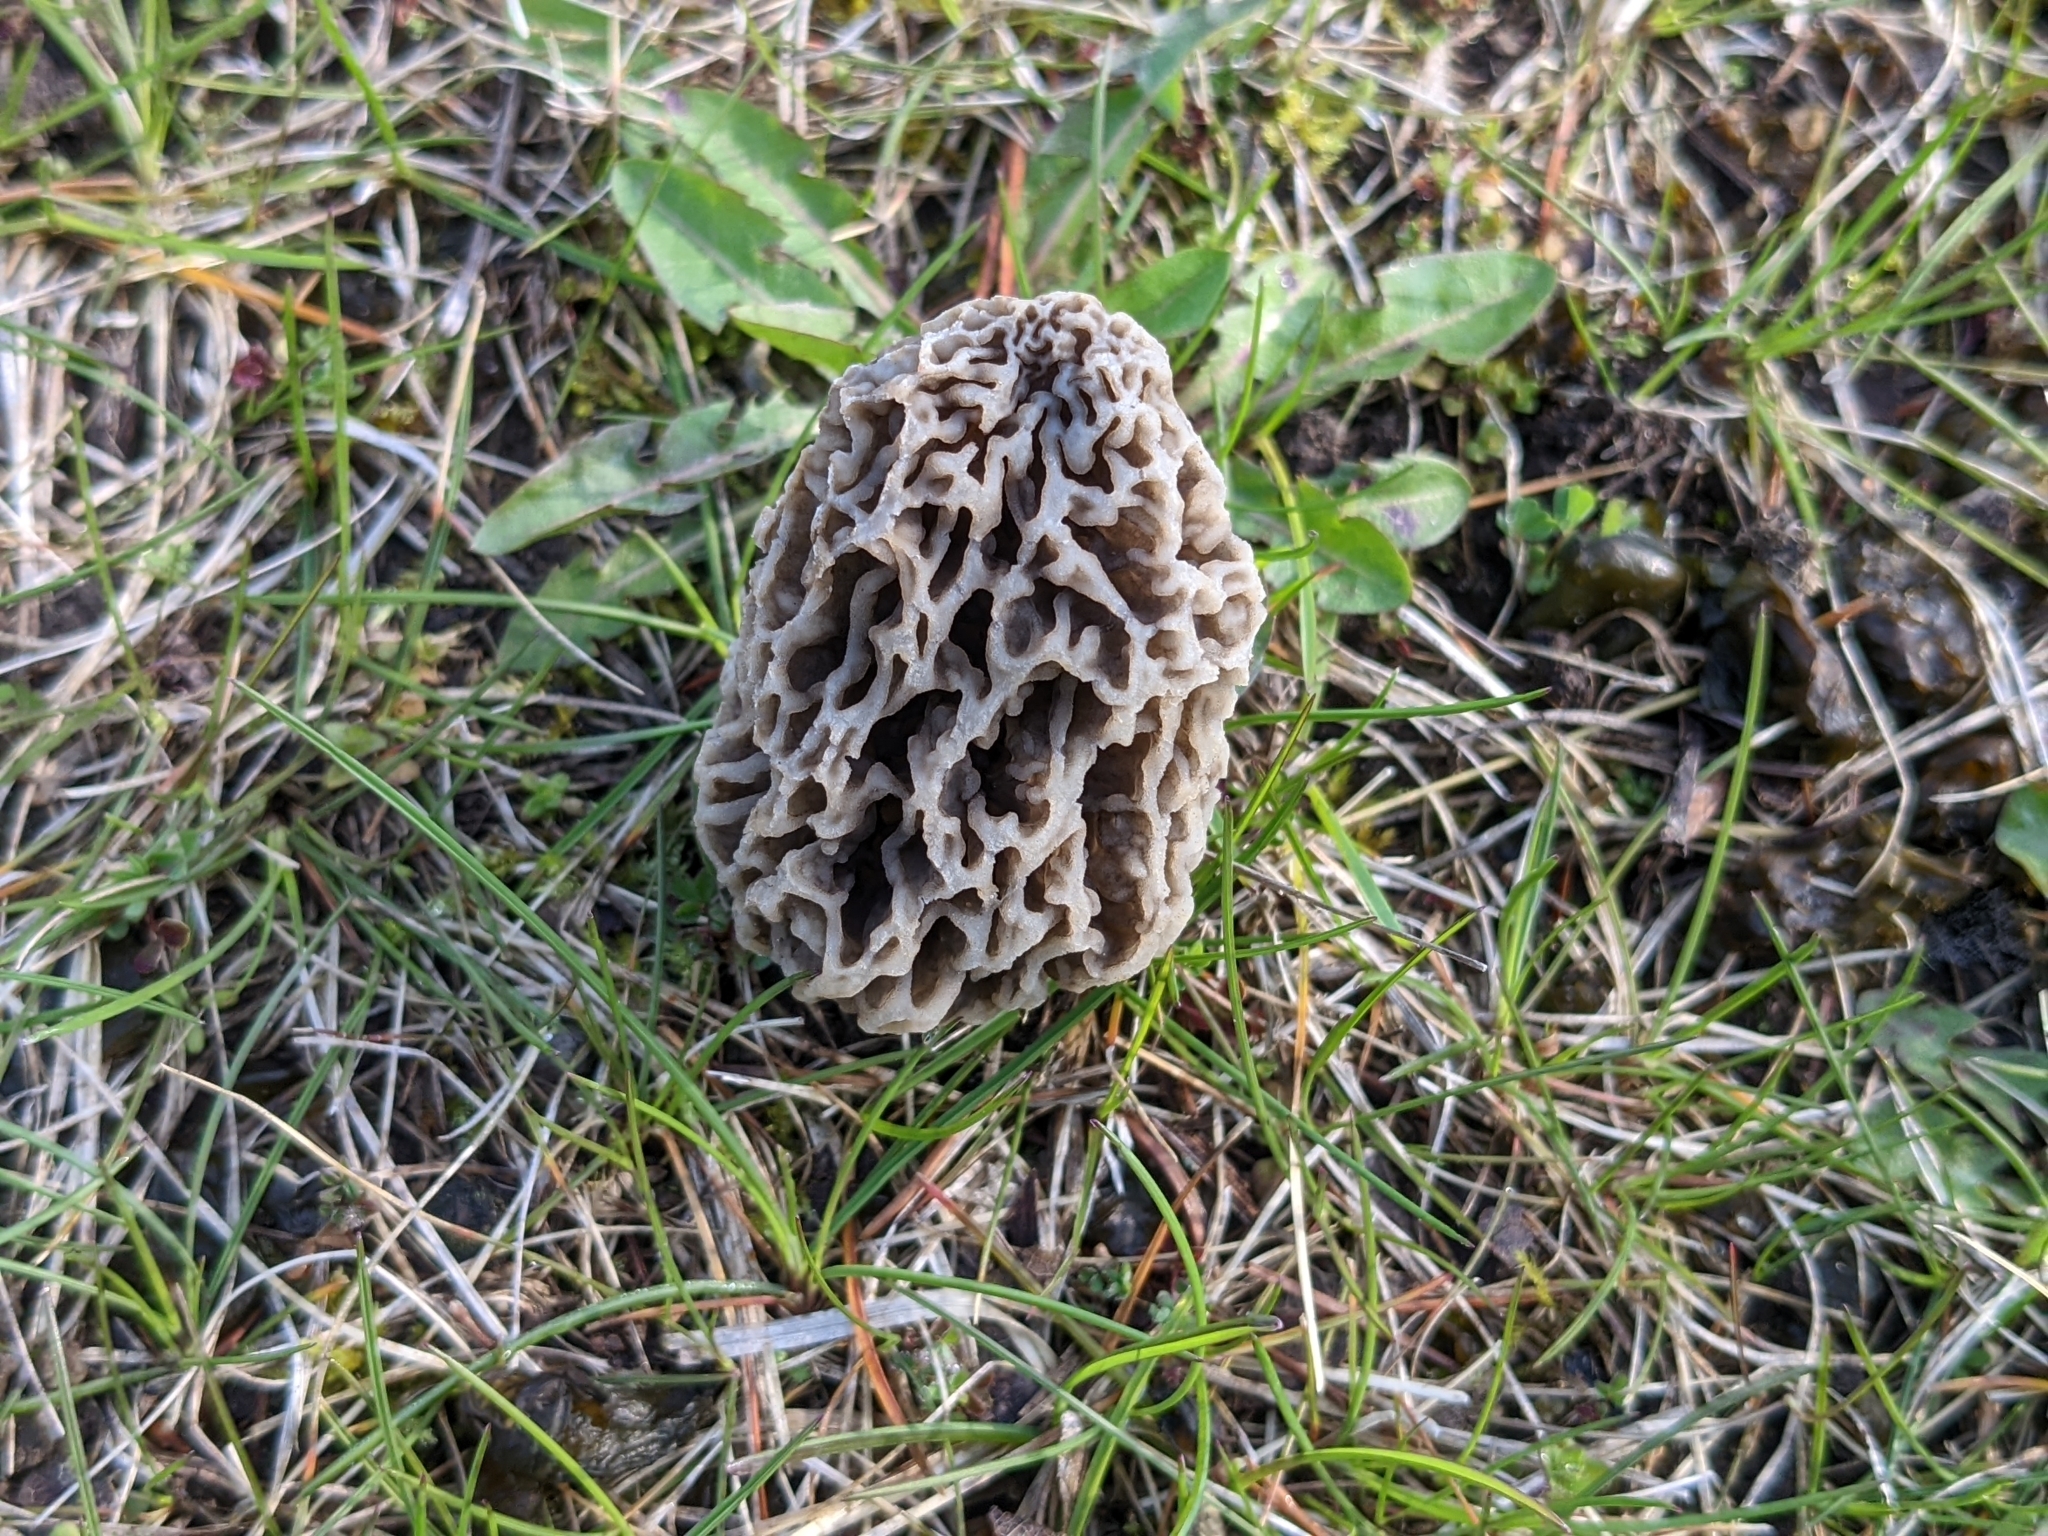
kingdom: Fungi
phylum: Ascomycota
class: Pezizomycetes
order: Pezizales
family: Morchellaceae
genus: Morchella
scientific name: Morchella americana
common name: White morel
